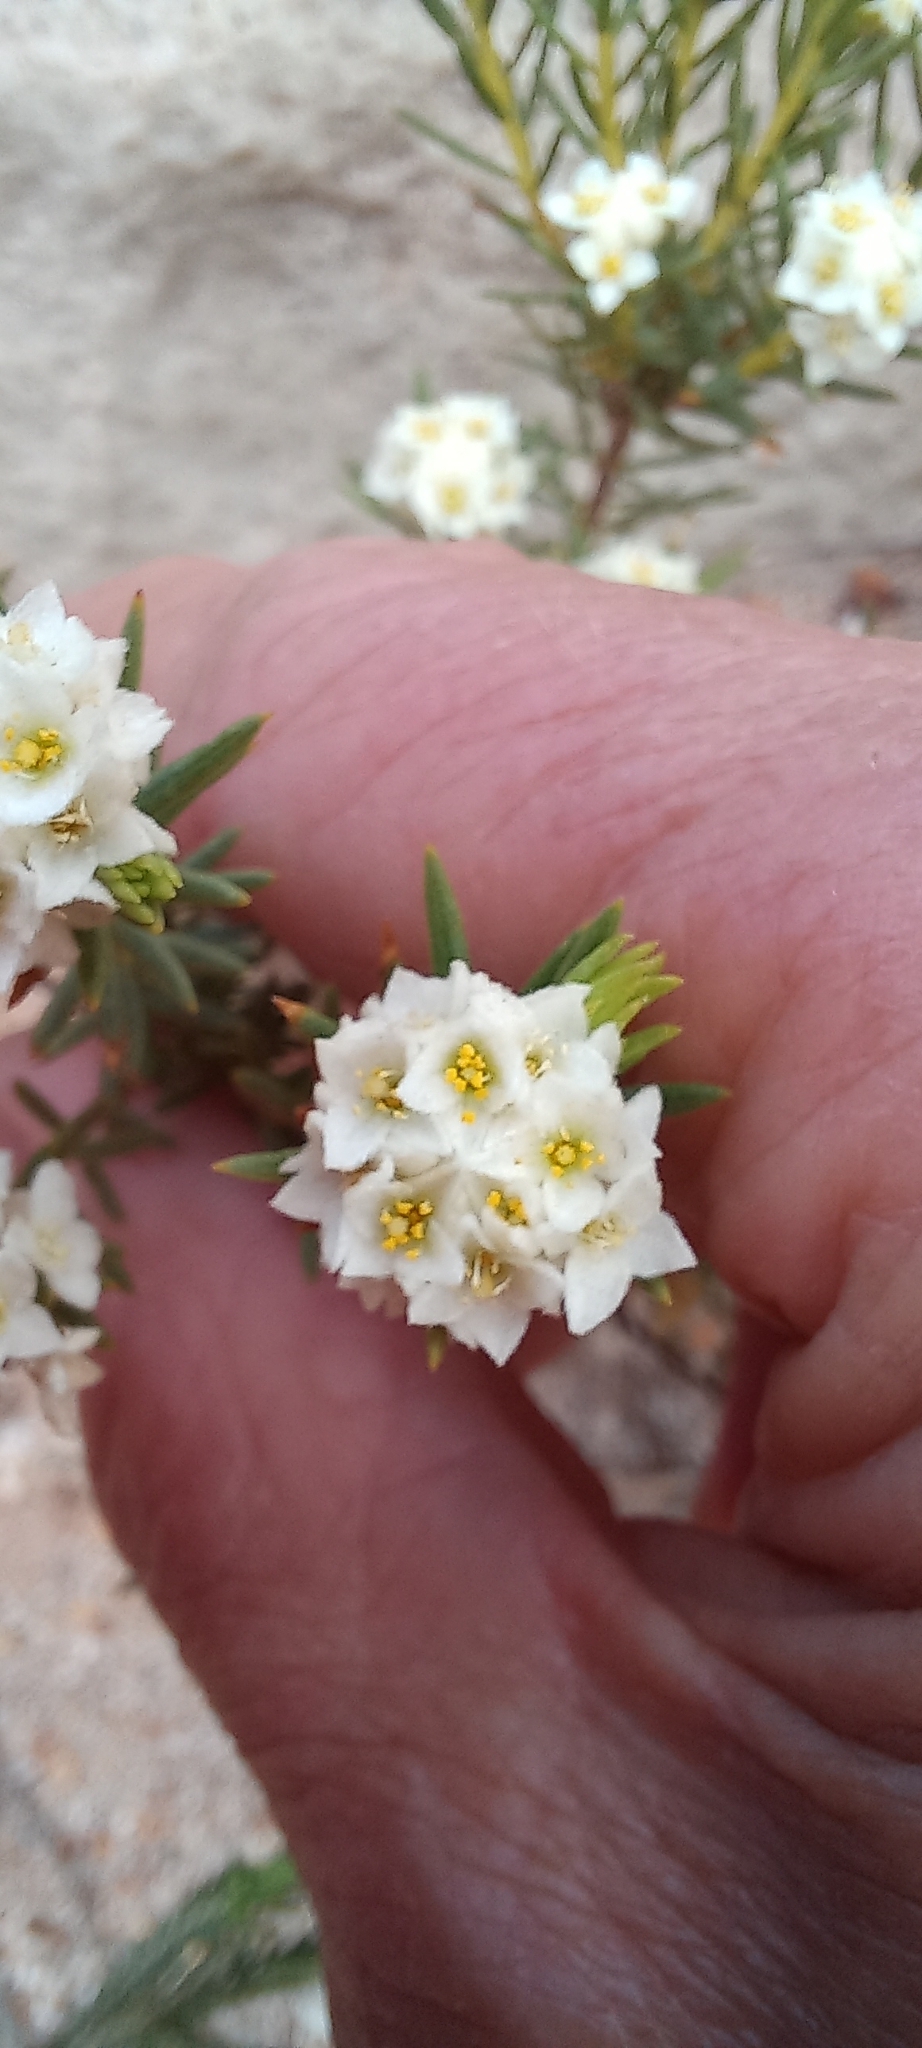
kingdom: Plantae
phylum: Tracheophyta
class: Magnoliopsida
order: Malvales
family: Thymelaeaceae
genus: Lachnaea
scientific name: Lachnaea densiflora
